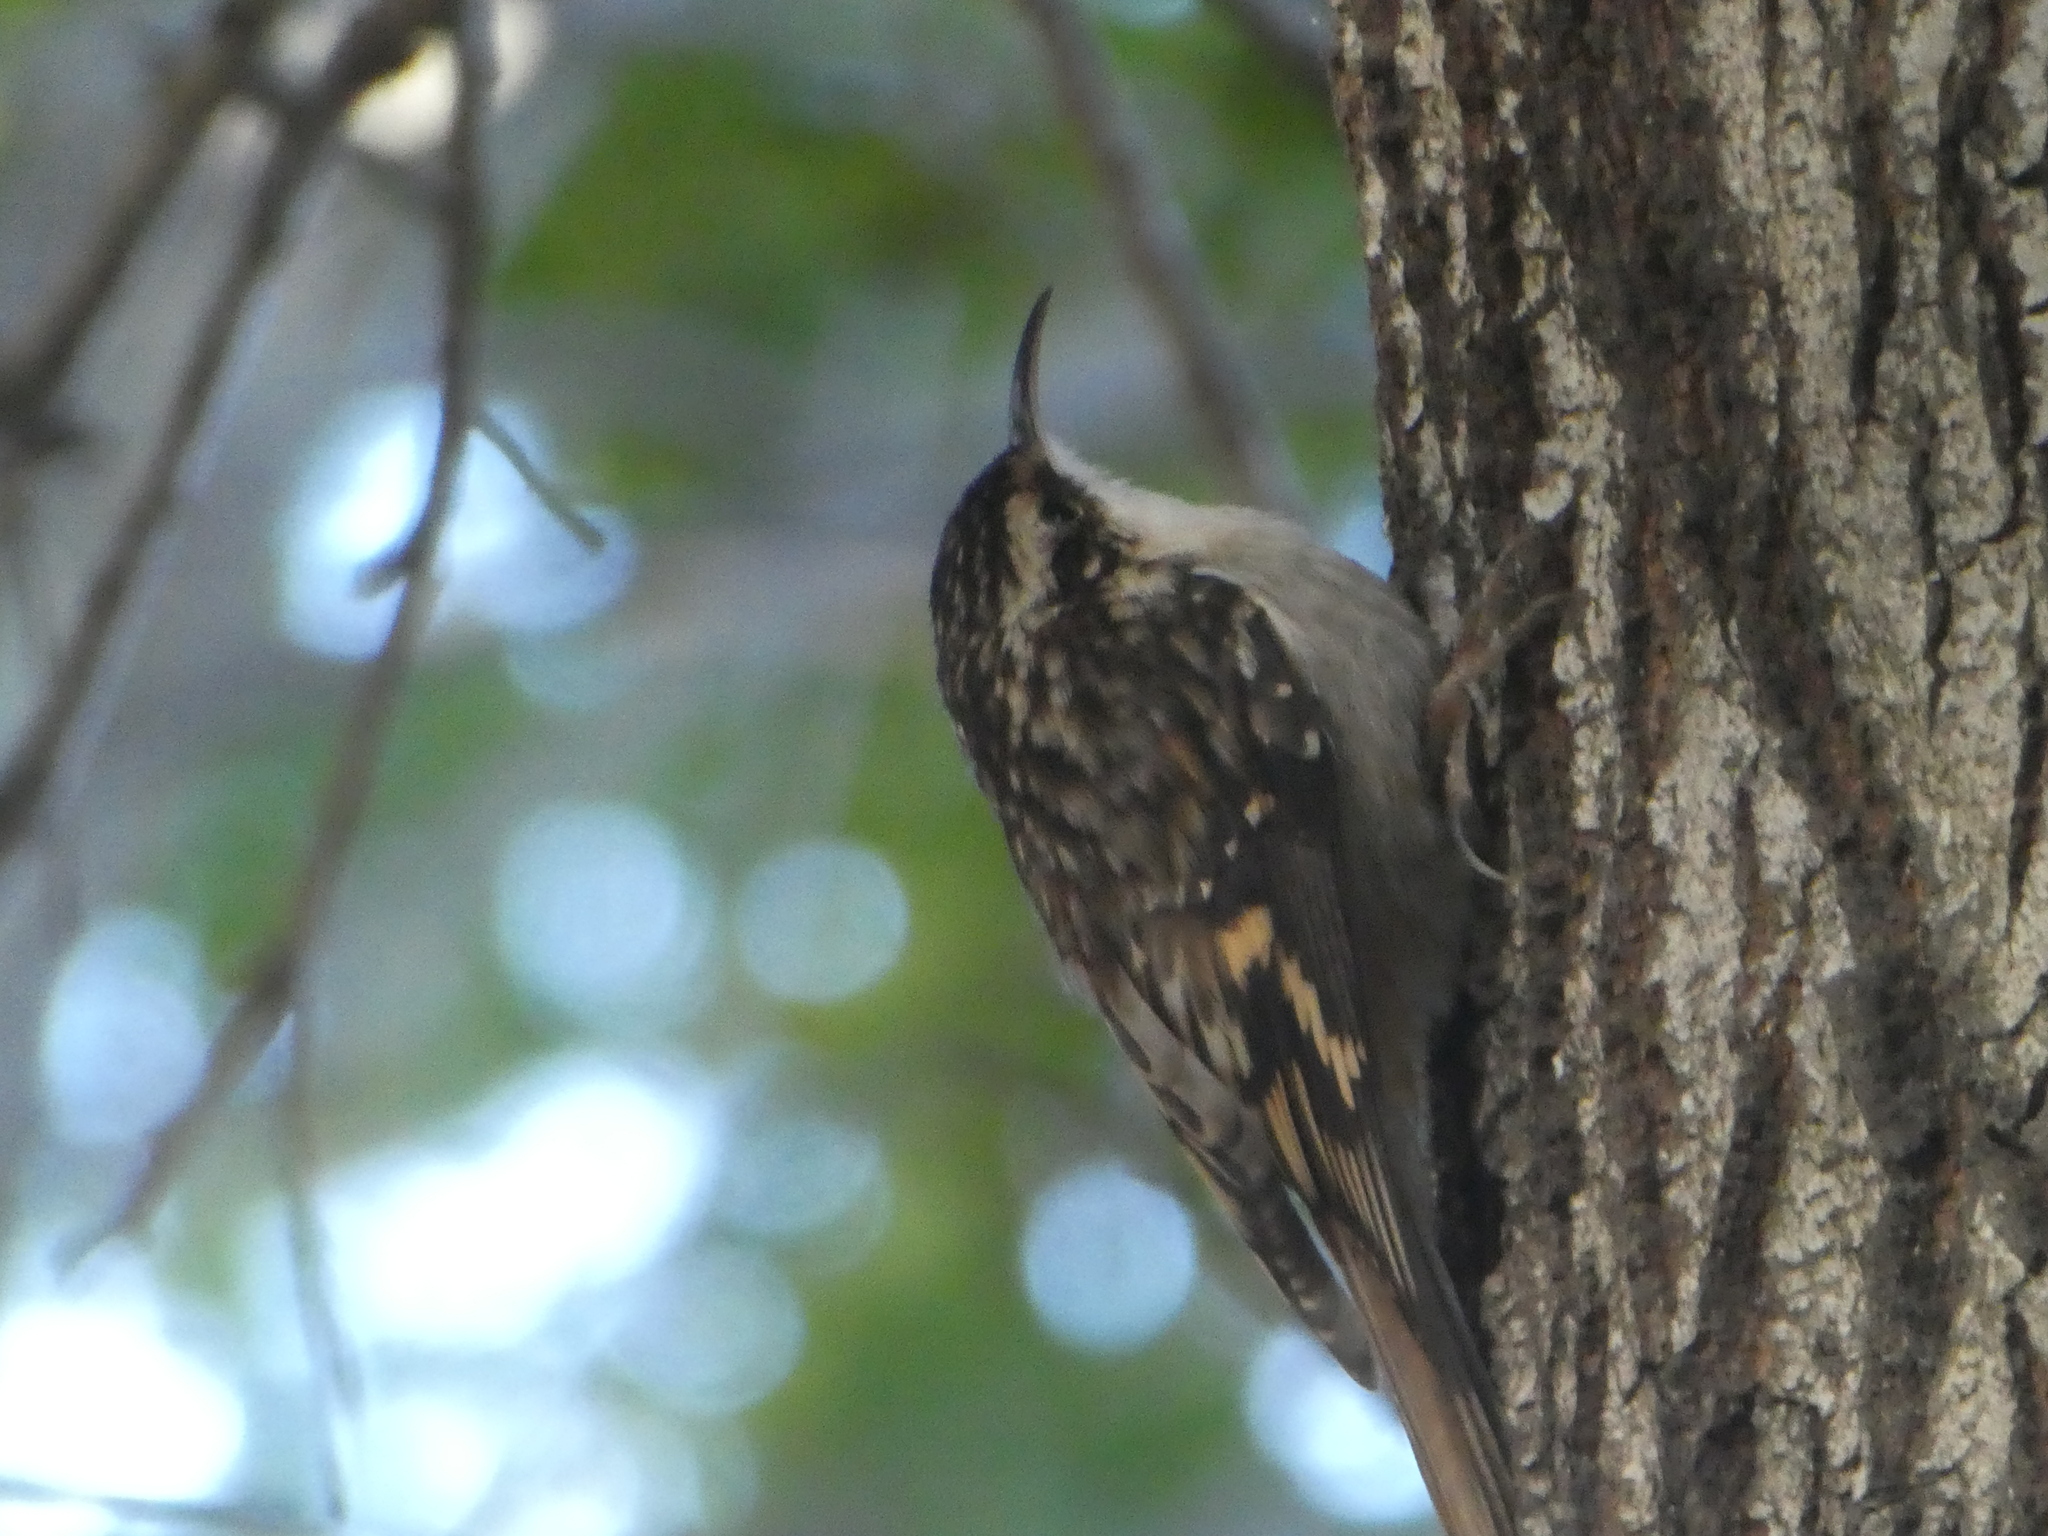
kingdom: Animalia
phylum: Chordata
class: Aves
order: Passeriformes
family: Certhiidae
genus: Certhia
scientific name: Certhia americana
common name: Brown creeper
